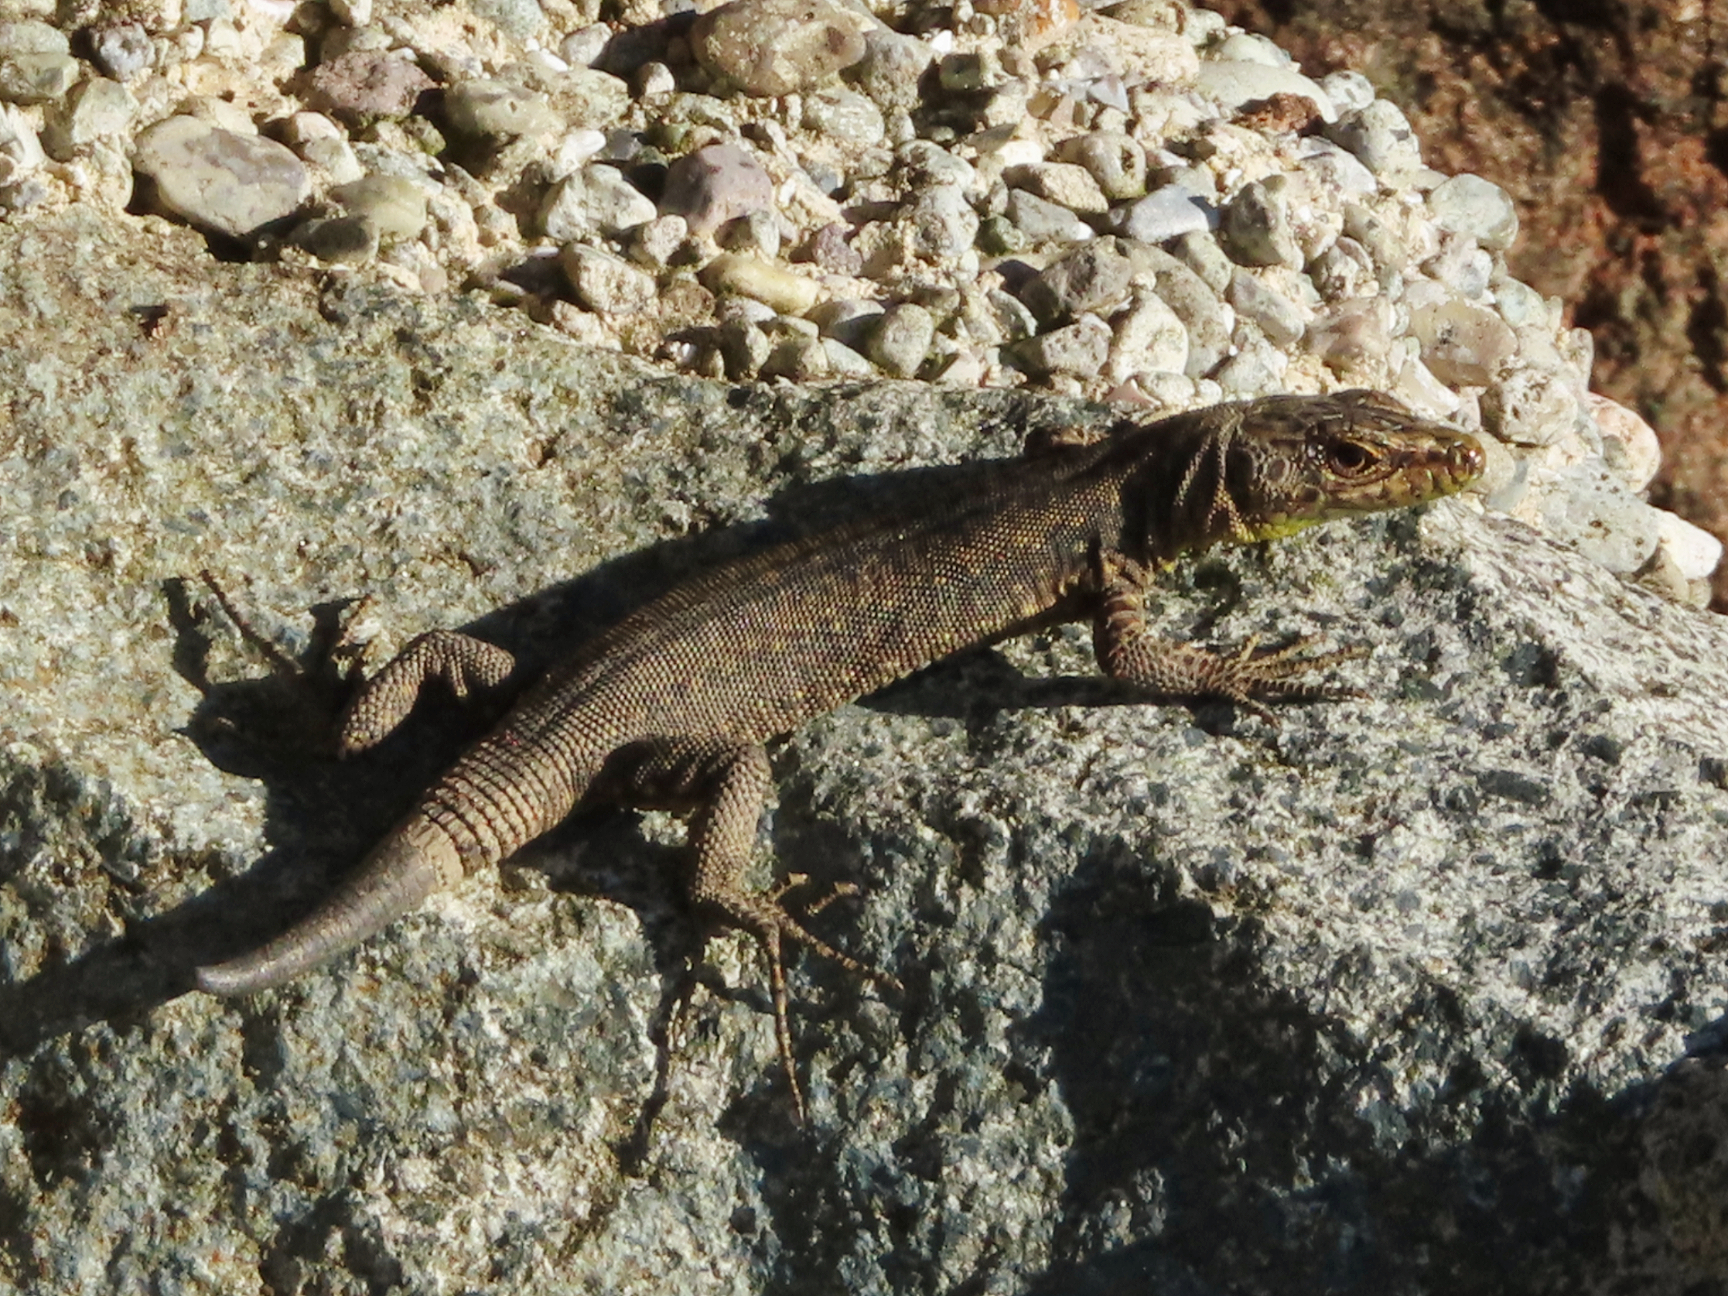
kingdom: Animalia
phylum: Chordata
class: Squamata
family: Lacertidae
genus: Darevskia
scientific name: Darevskia rudis
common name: Spiny-tailed lizard
